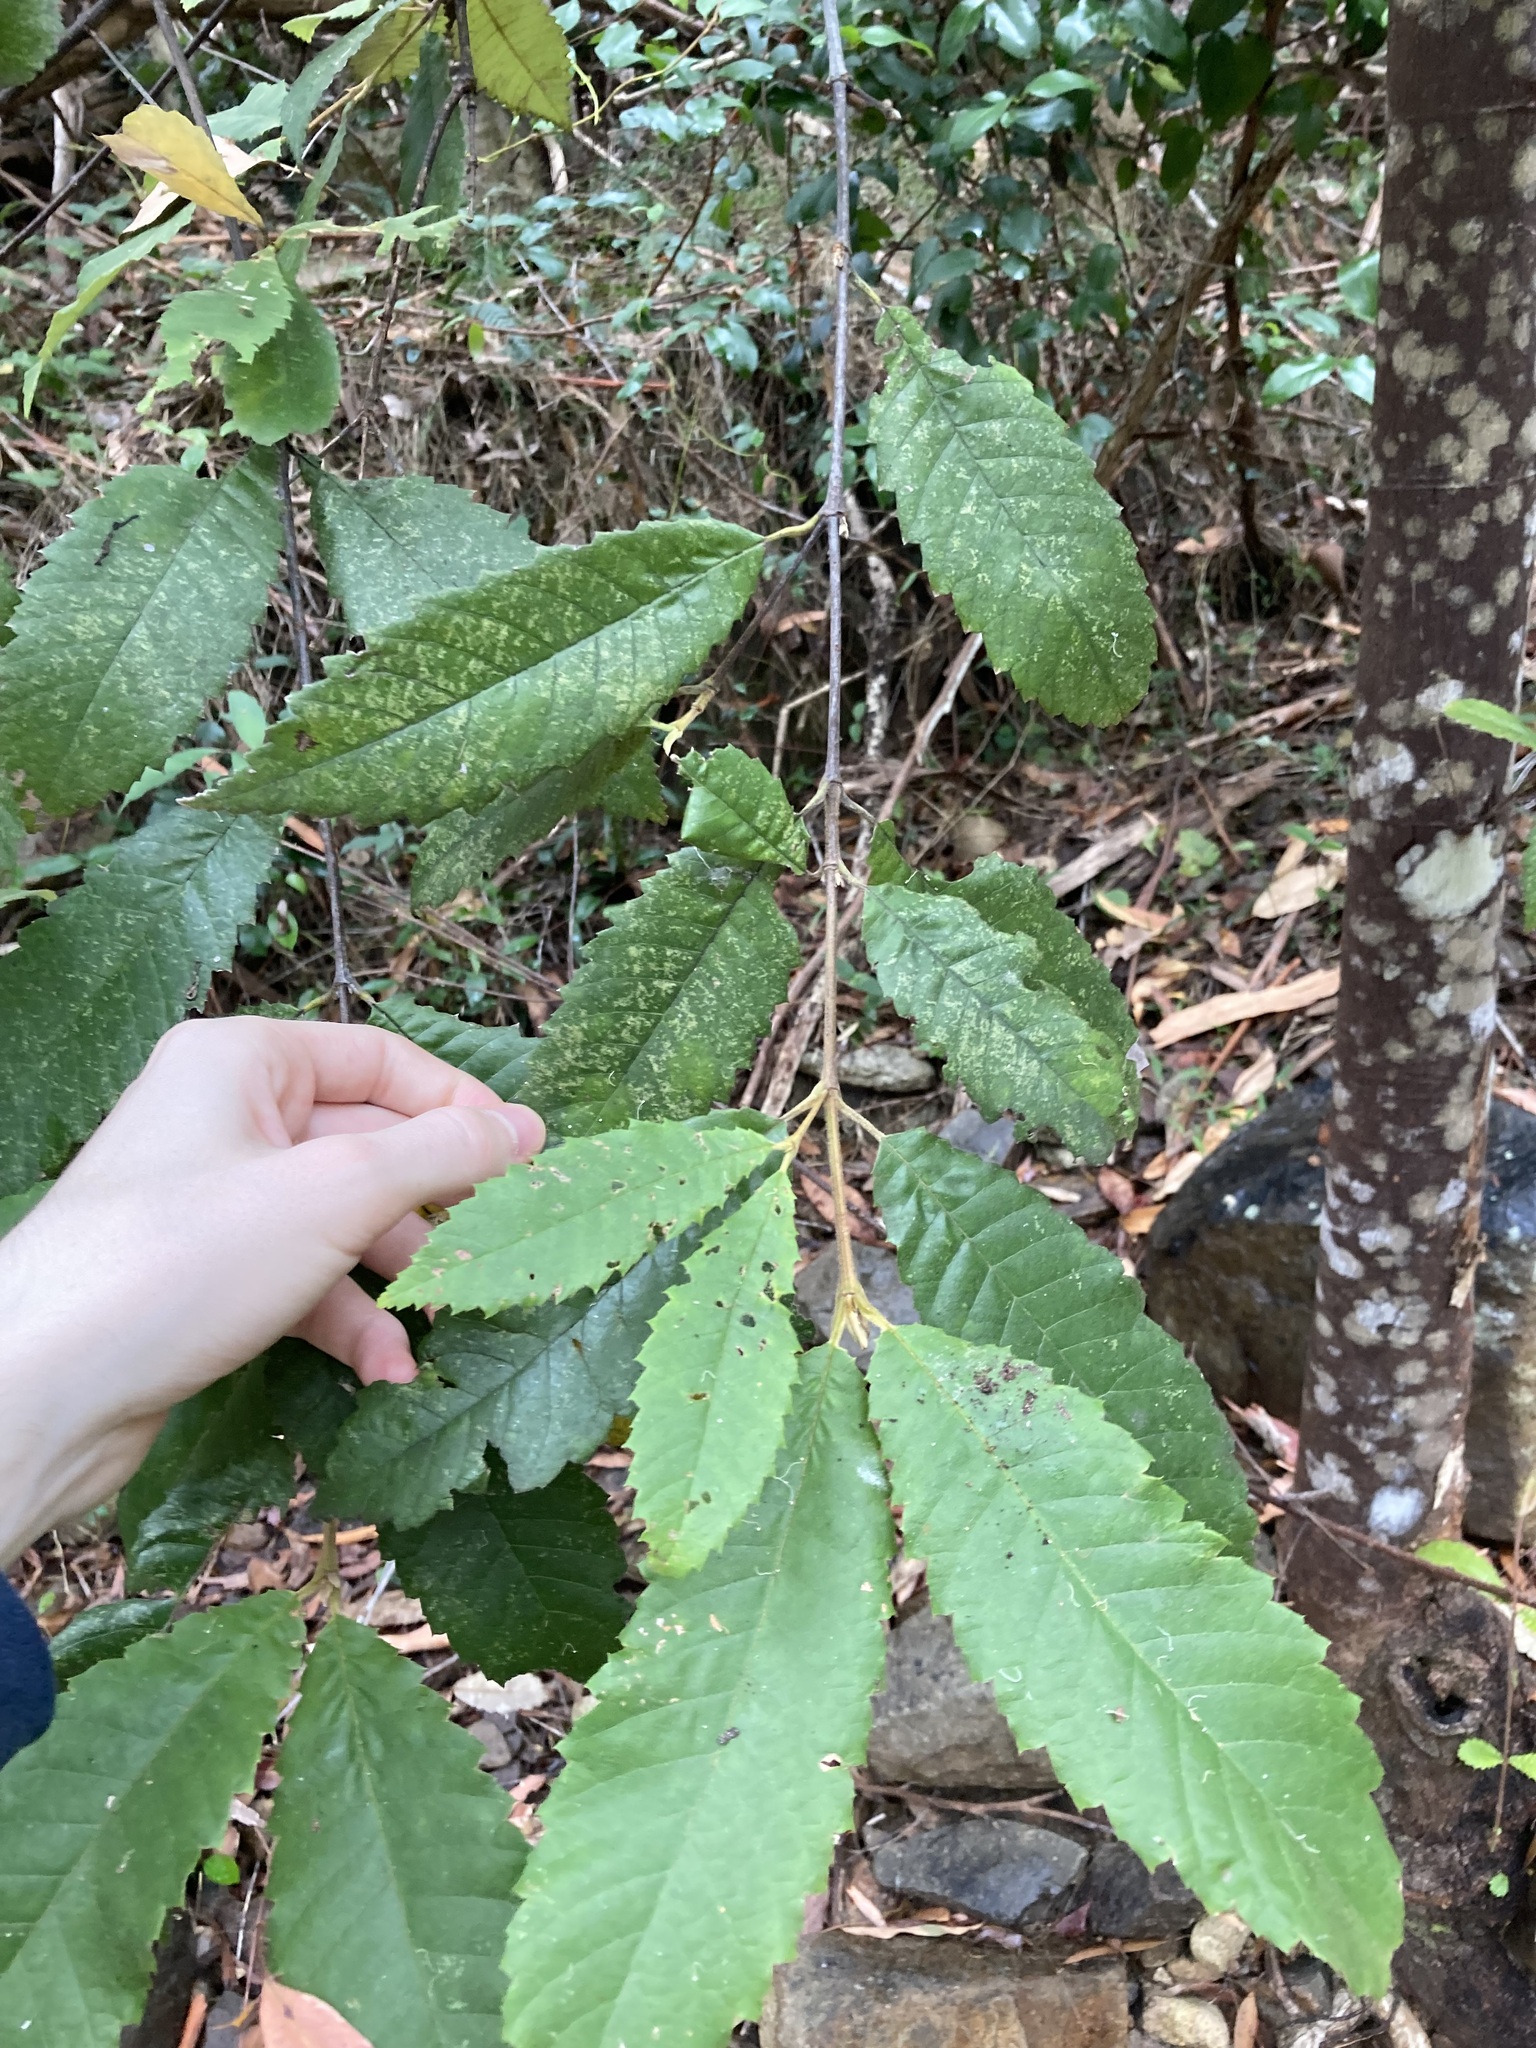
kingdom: Plantae
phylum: Tracheophyta
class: Magnoliopsida
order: Oxalidales
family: Cunoniaceae
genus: Callicoma
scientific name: Callicoma serratifolia
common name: Black wattle
